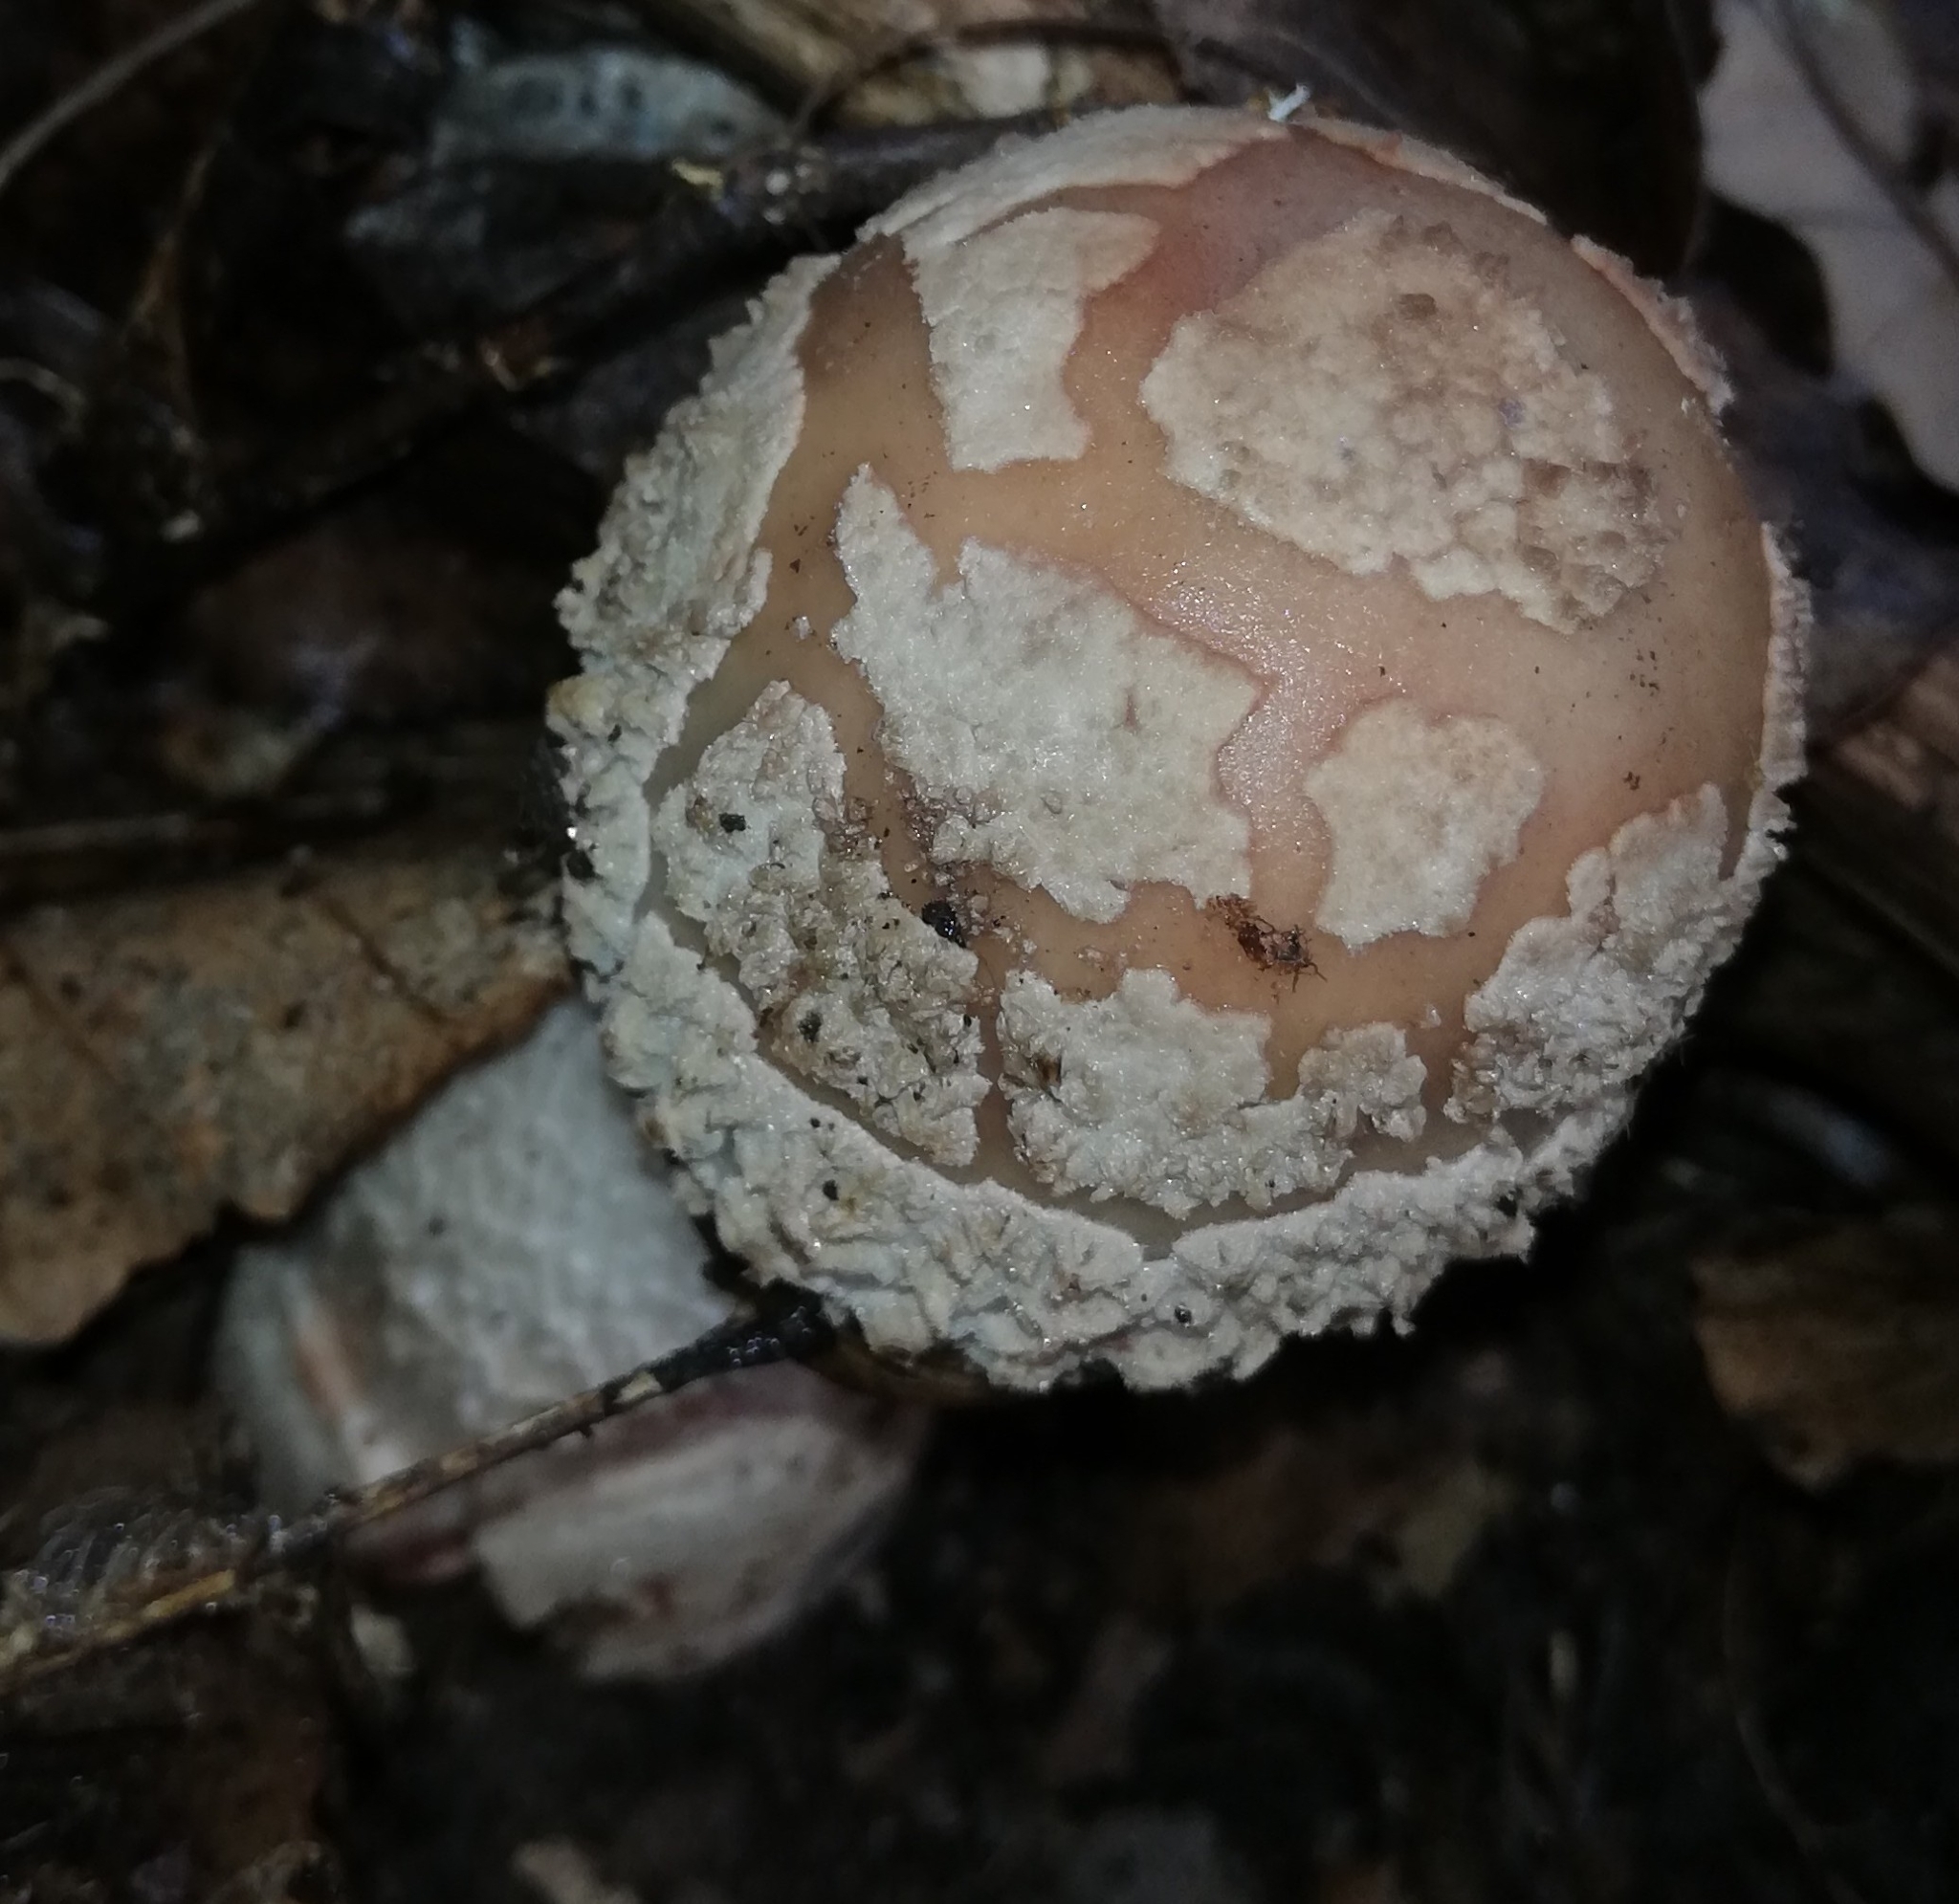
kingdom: Fungi
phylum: Basidiomycota
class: Agaricomycetes
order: Agaricales
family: Amanitaceae
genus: Amanita
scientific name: Amanita rubescens
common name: Blusher
